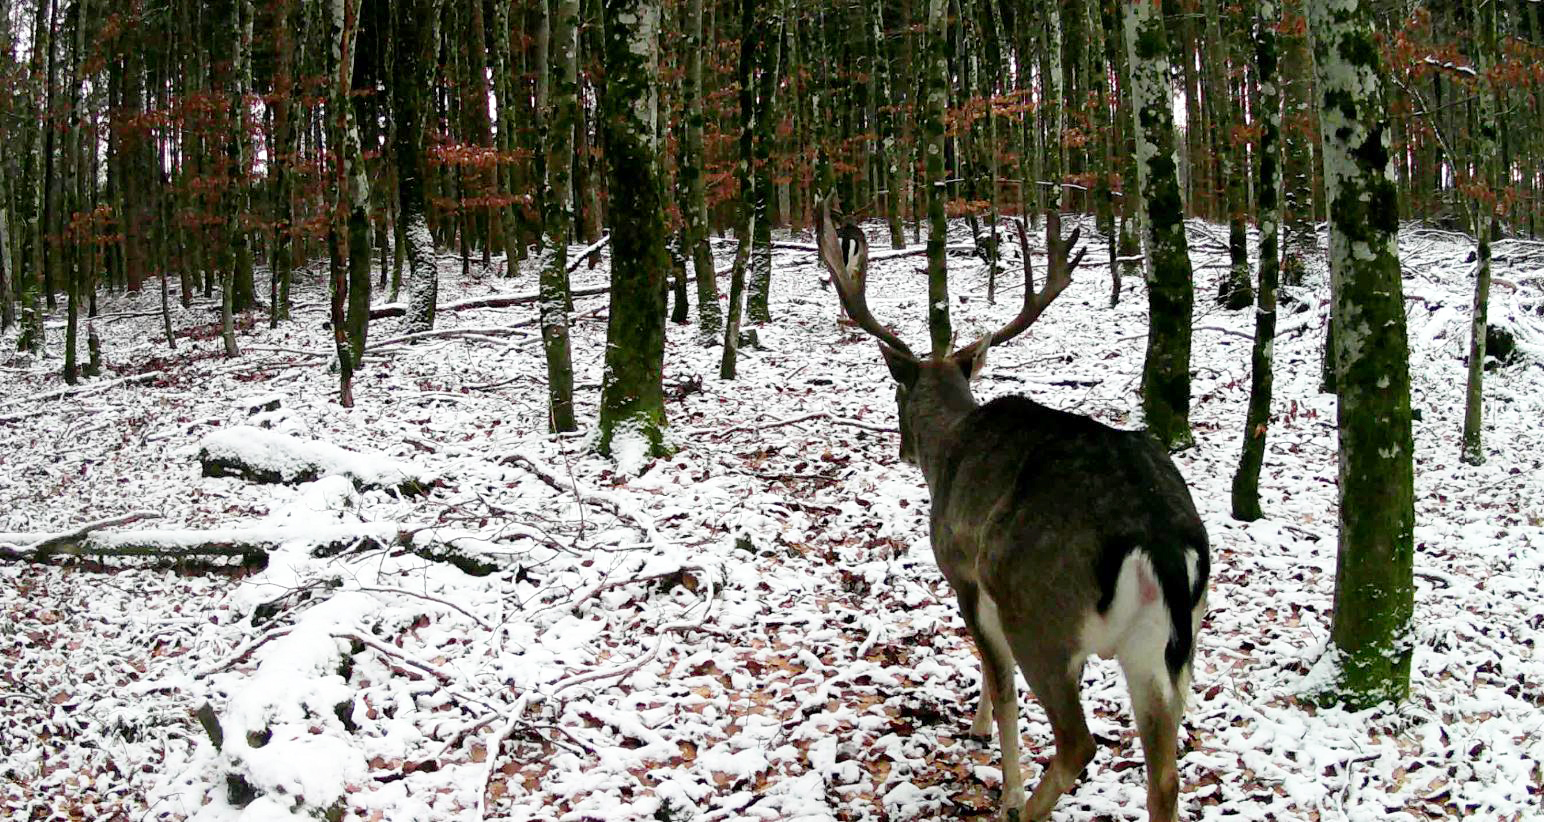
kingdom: Animalia
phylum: Chordata
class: Mammalia
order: Artiodactyla
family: Cervidae
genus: Dama
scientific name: Dama dama
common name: Fallow deer
